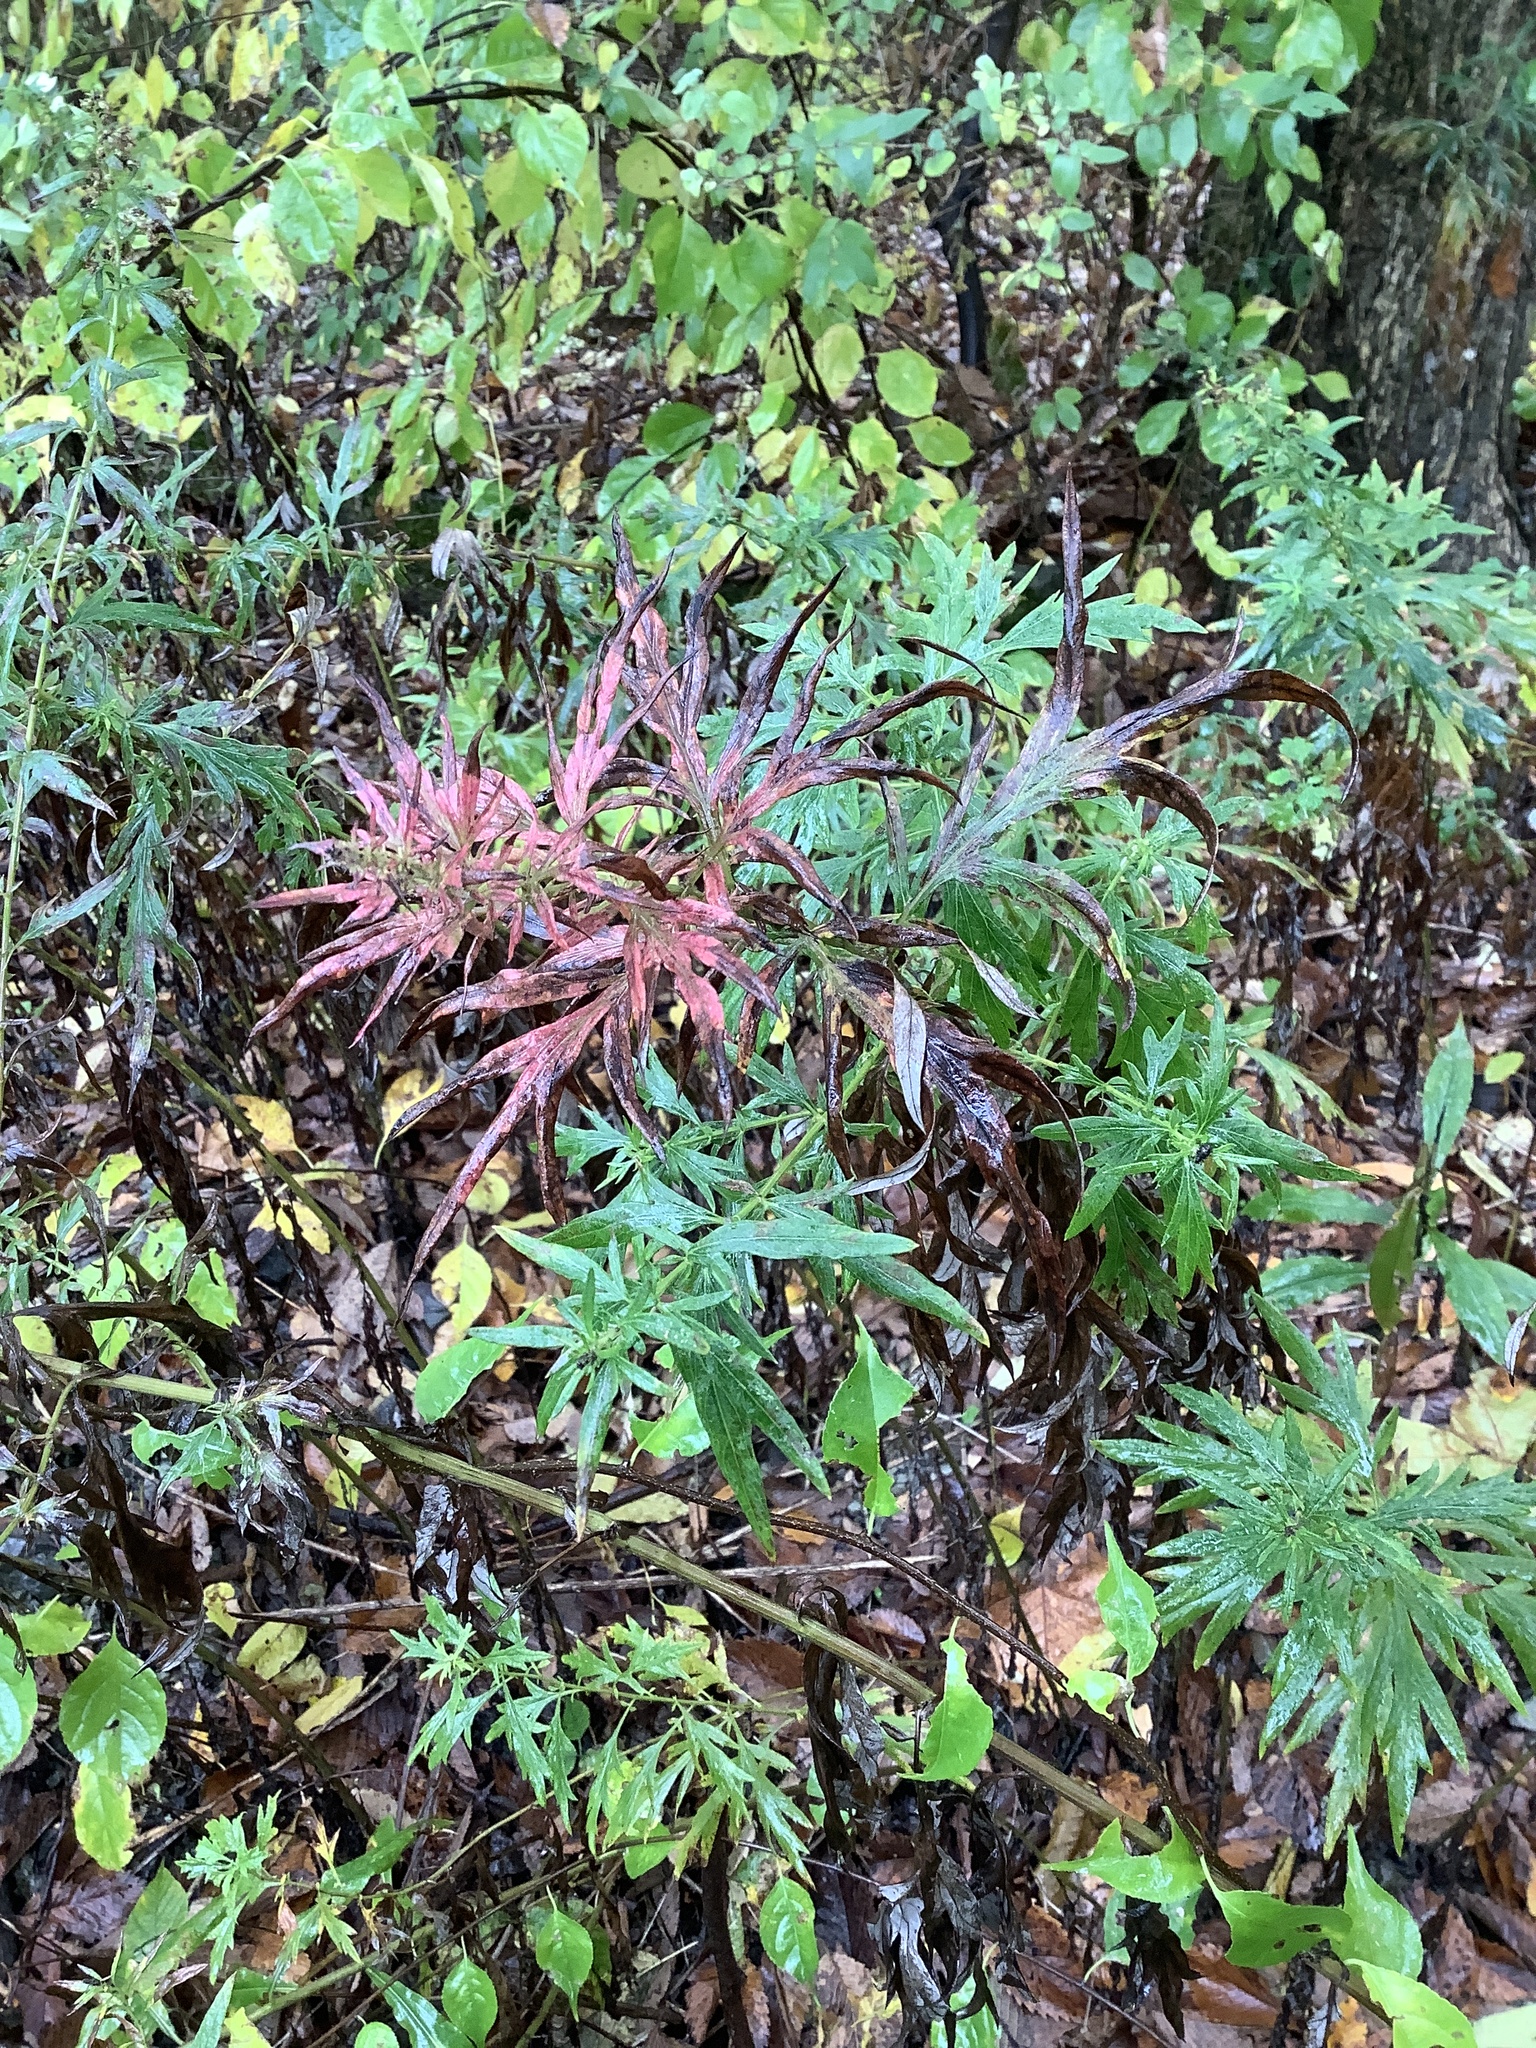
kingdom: Plantae
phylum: Tracheophyta
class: Magnoliopsida
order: Asterales
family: Asteraceae
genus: Artemisia
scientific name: Artemisia vulgaris
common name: Mugwort
